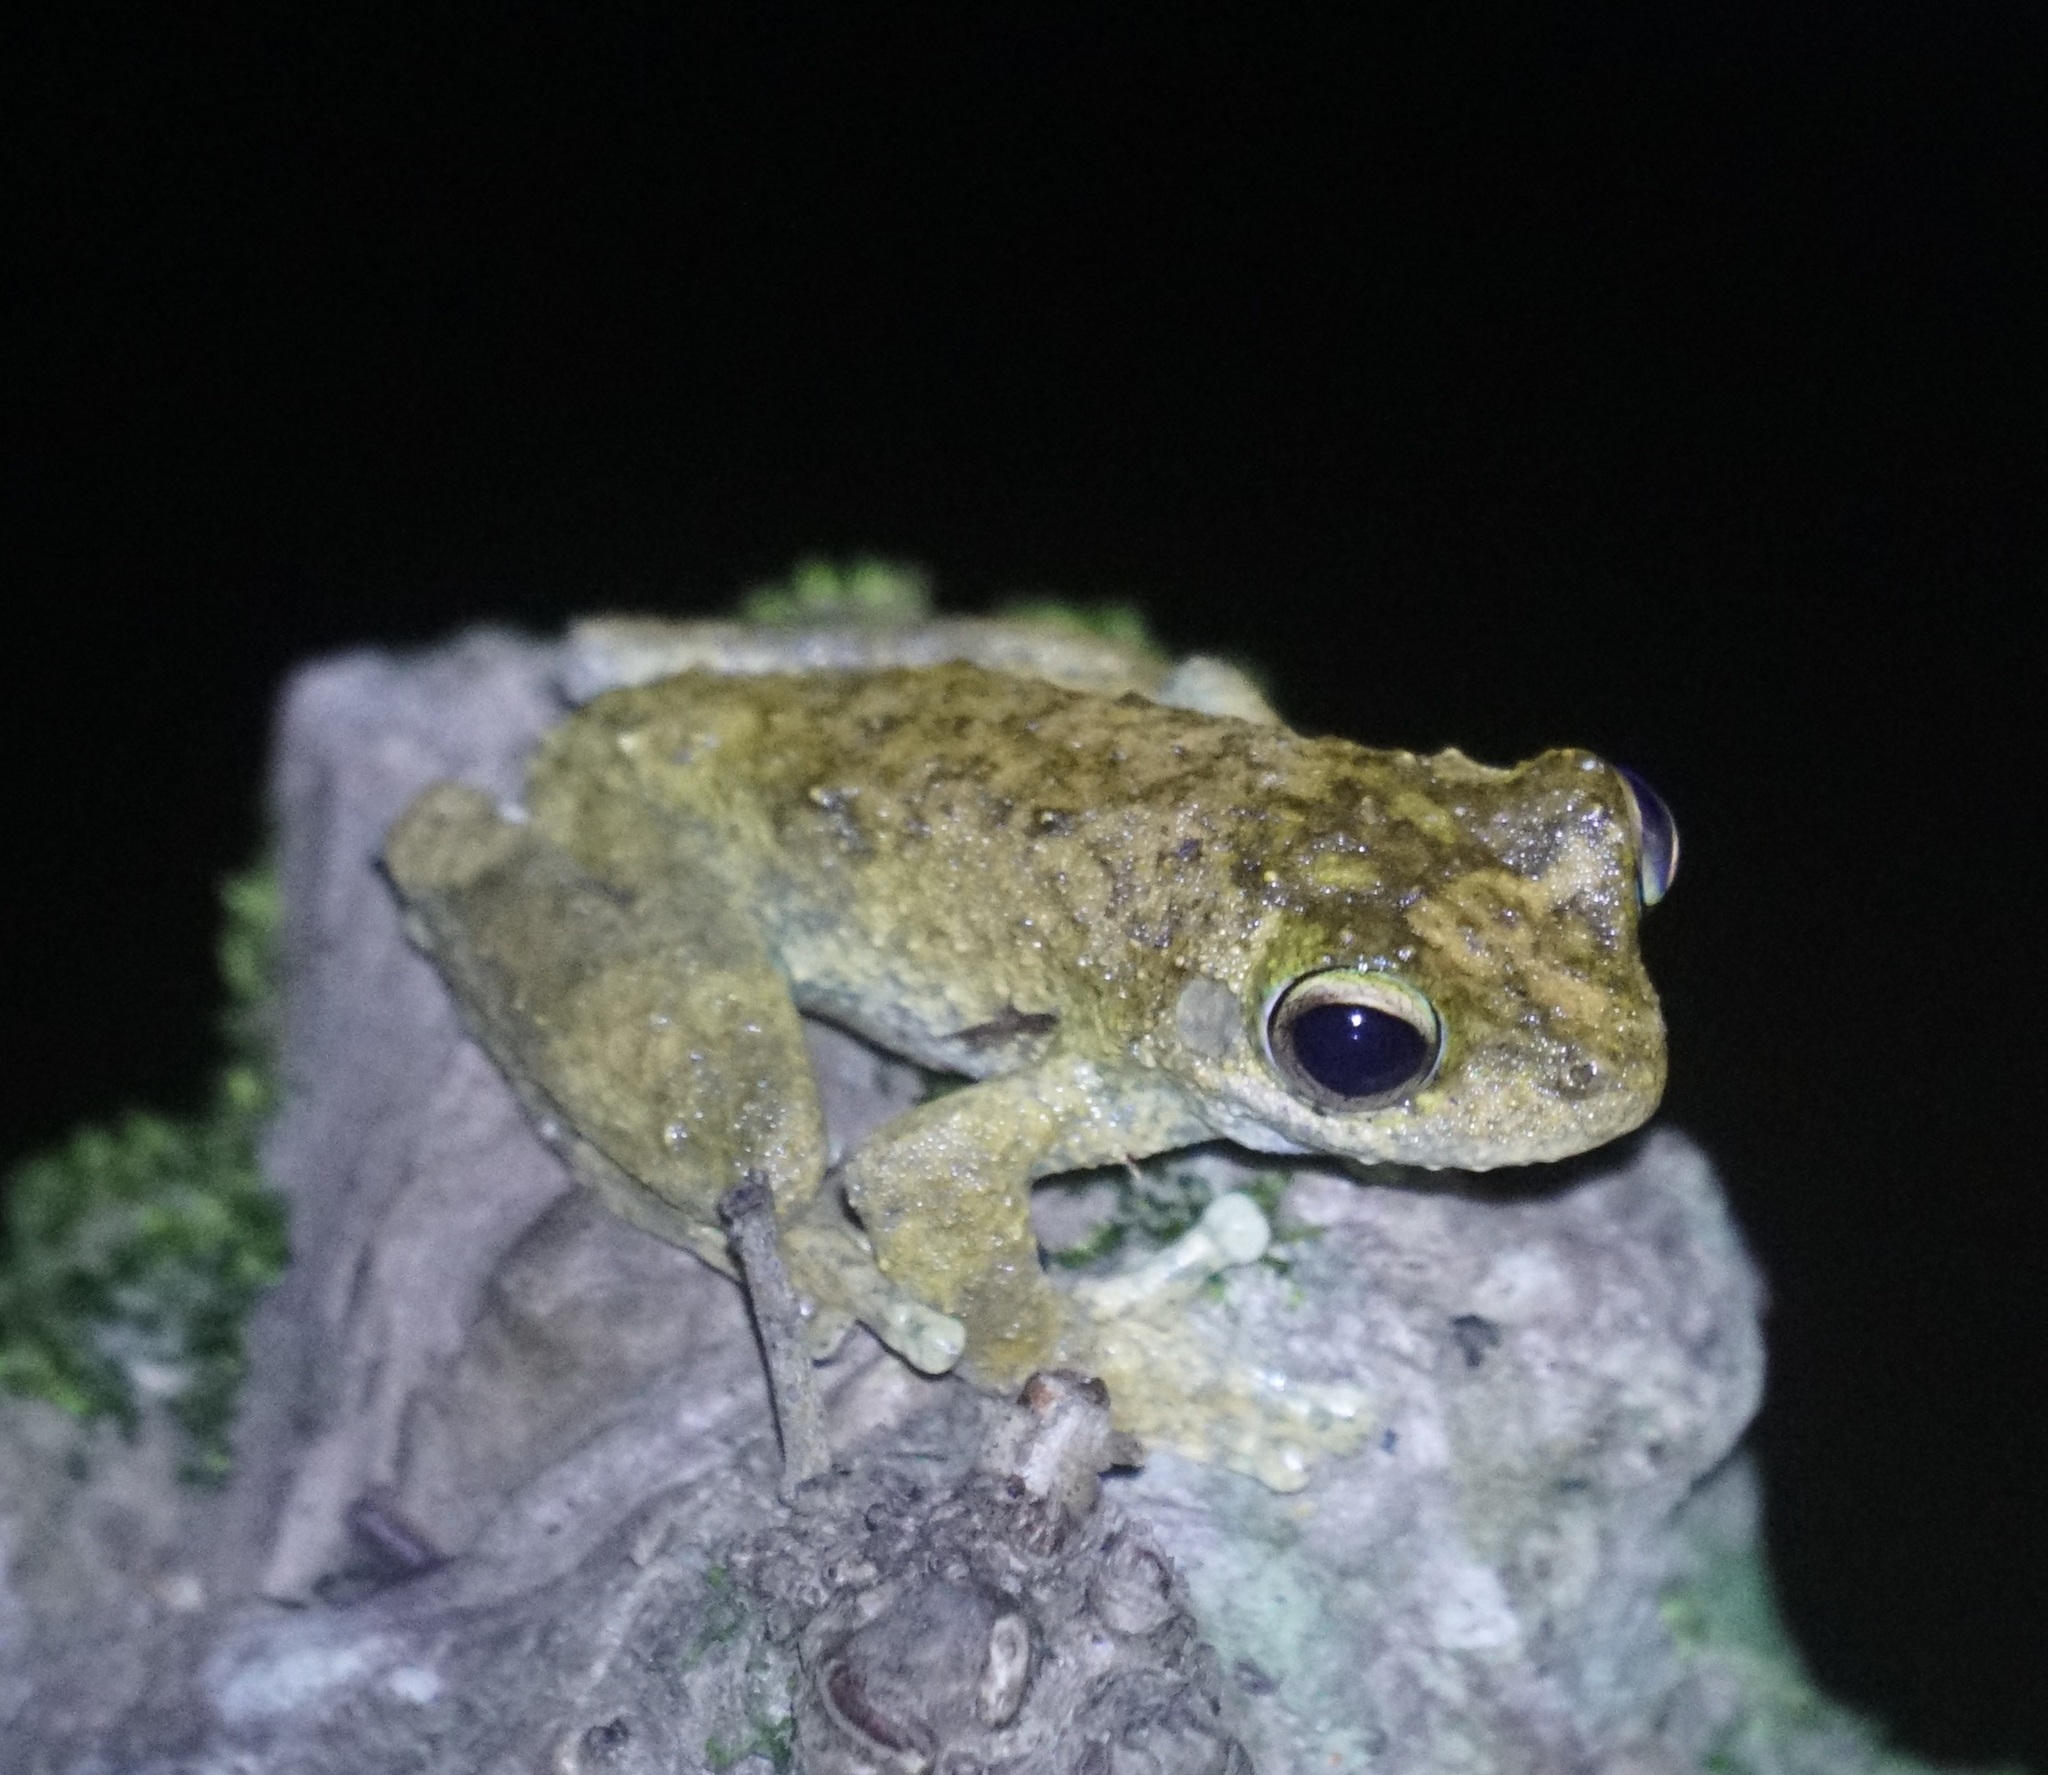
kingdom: Animalia
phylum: Chordata
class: Amphibia
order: Anura
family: Pelodryadidae
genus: Ranoidea
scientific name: Ranoidea myola
